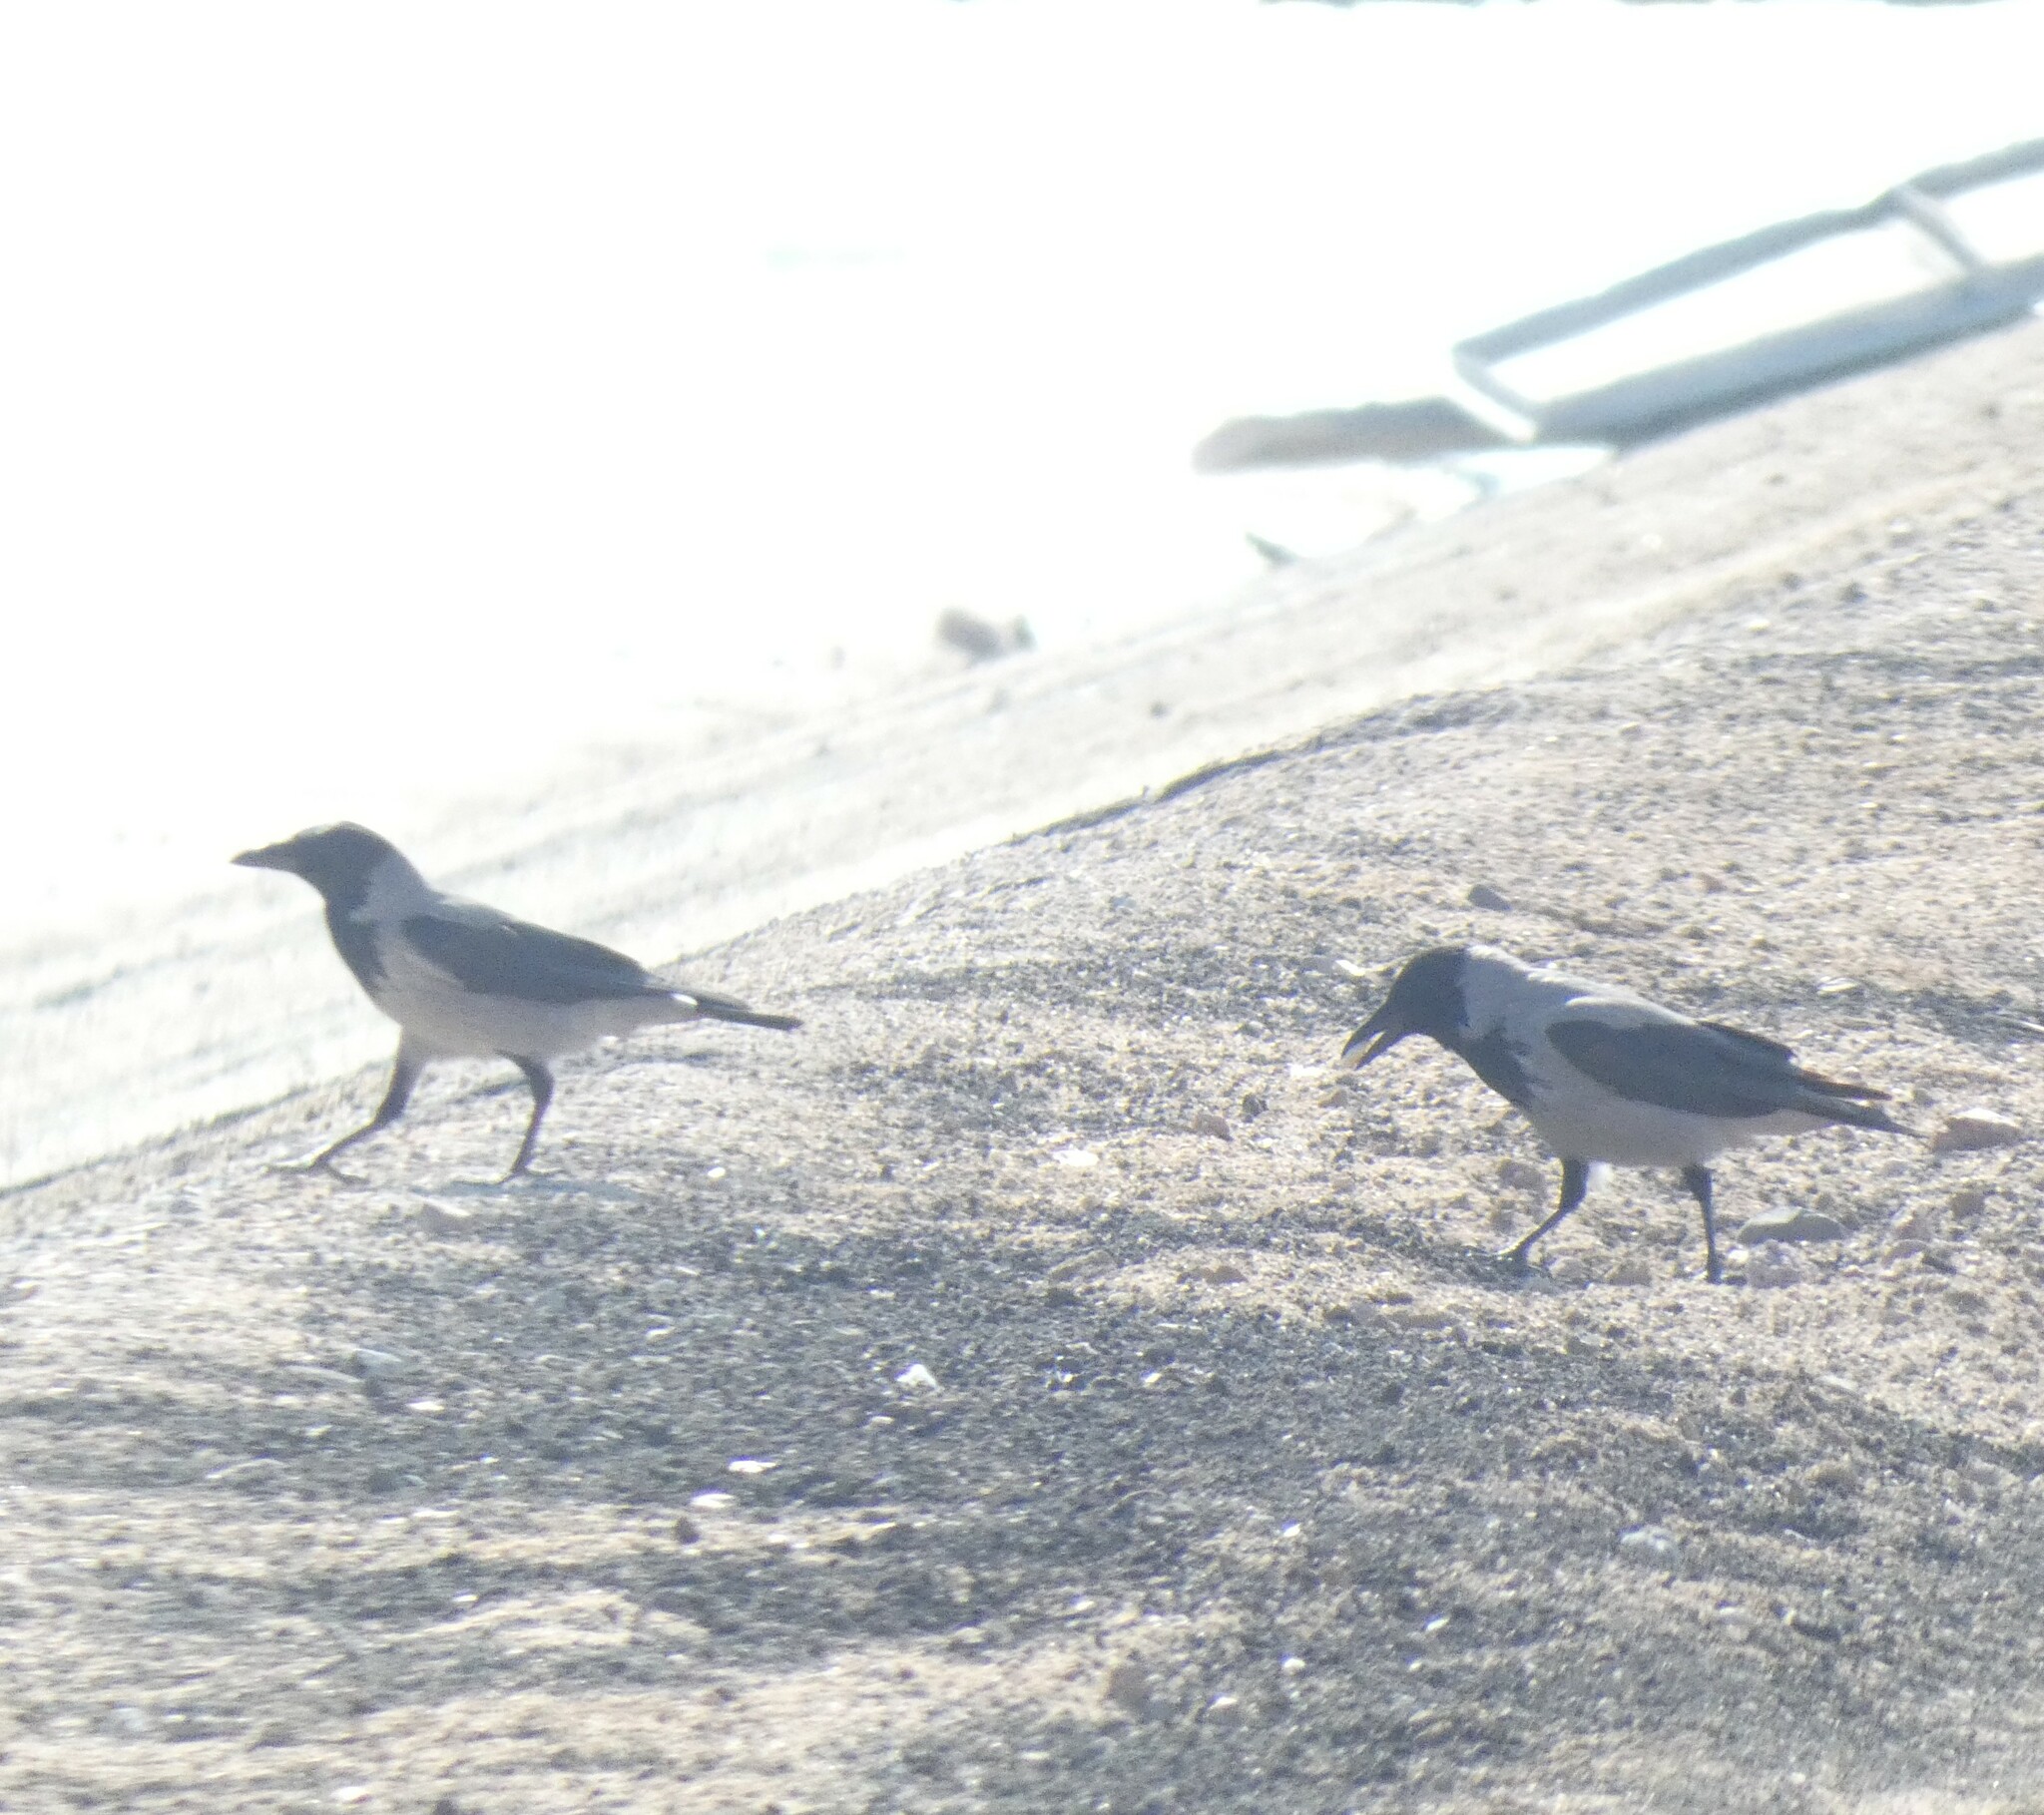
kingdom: Animalia
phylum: Chordata
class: Aves
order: Passeriformes
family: Corvidae
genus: Corvus
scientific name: Corvus cornix
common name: Hooded crow
